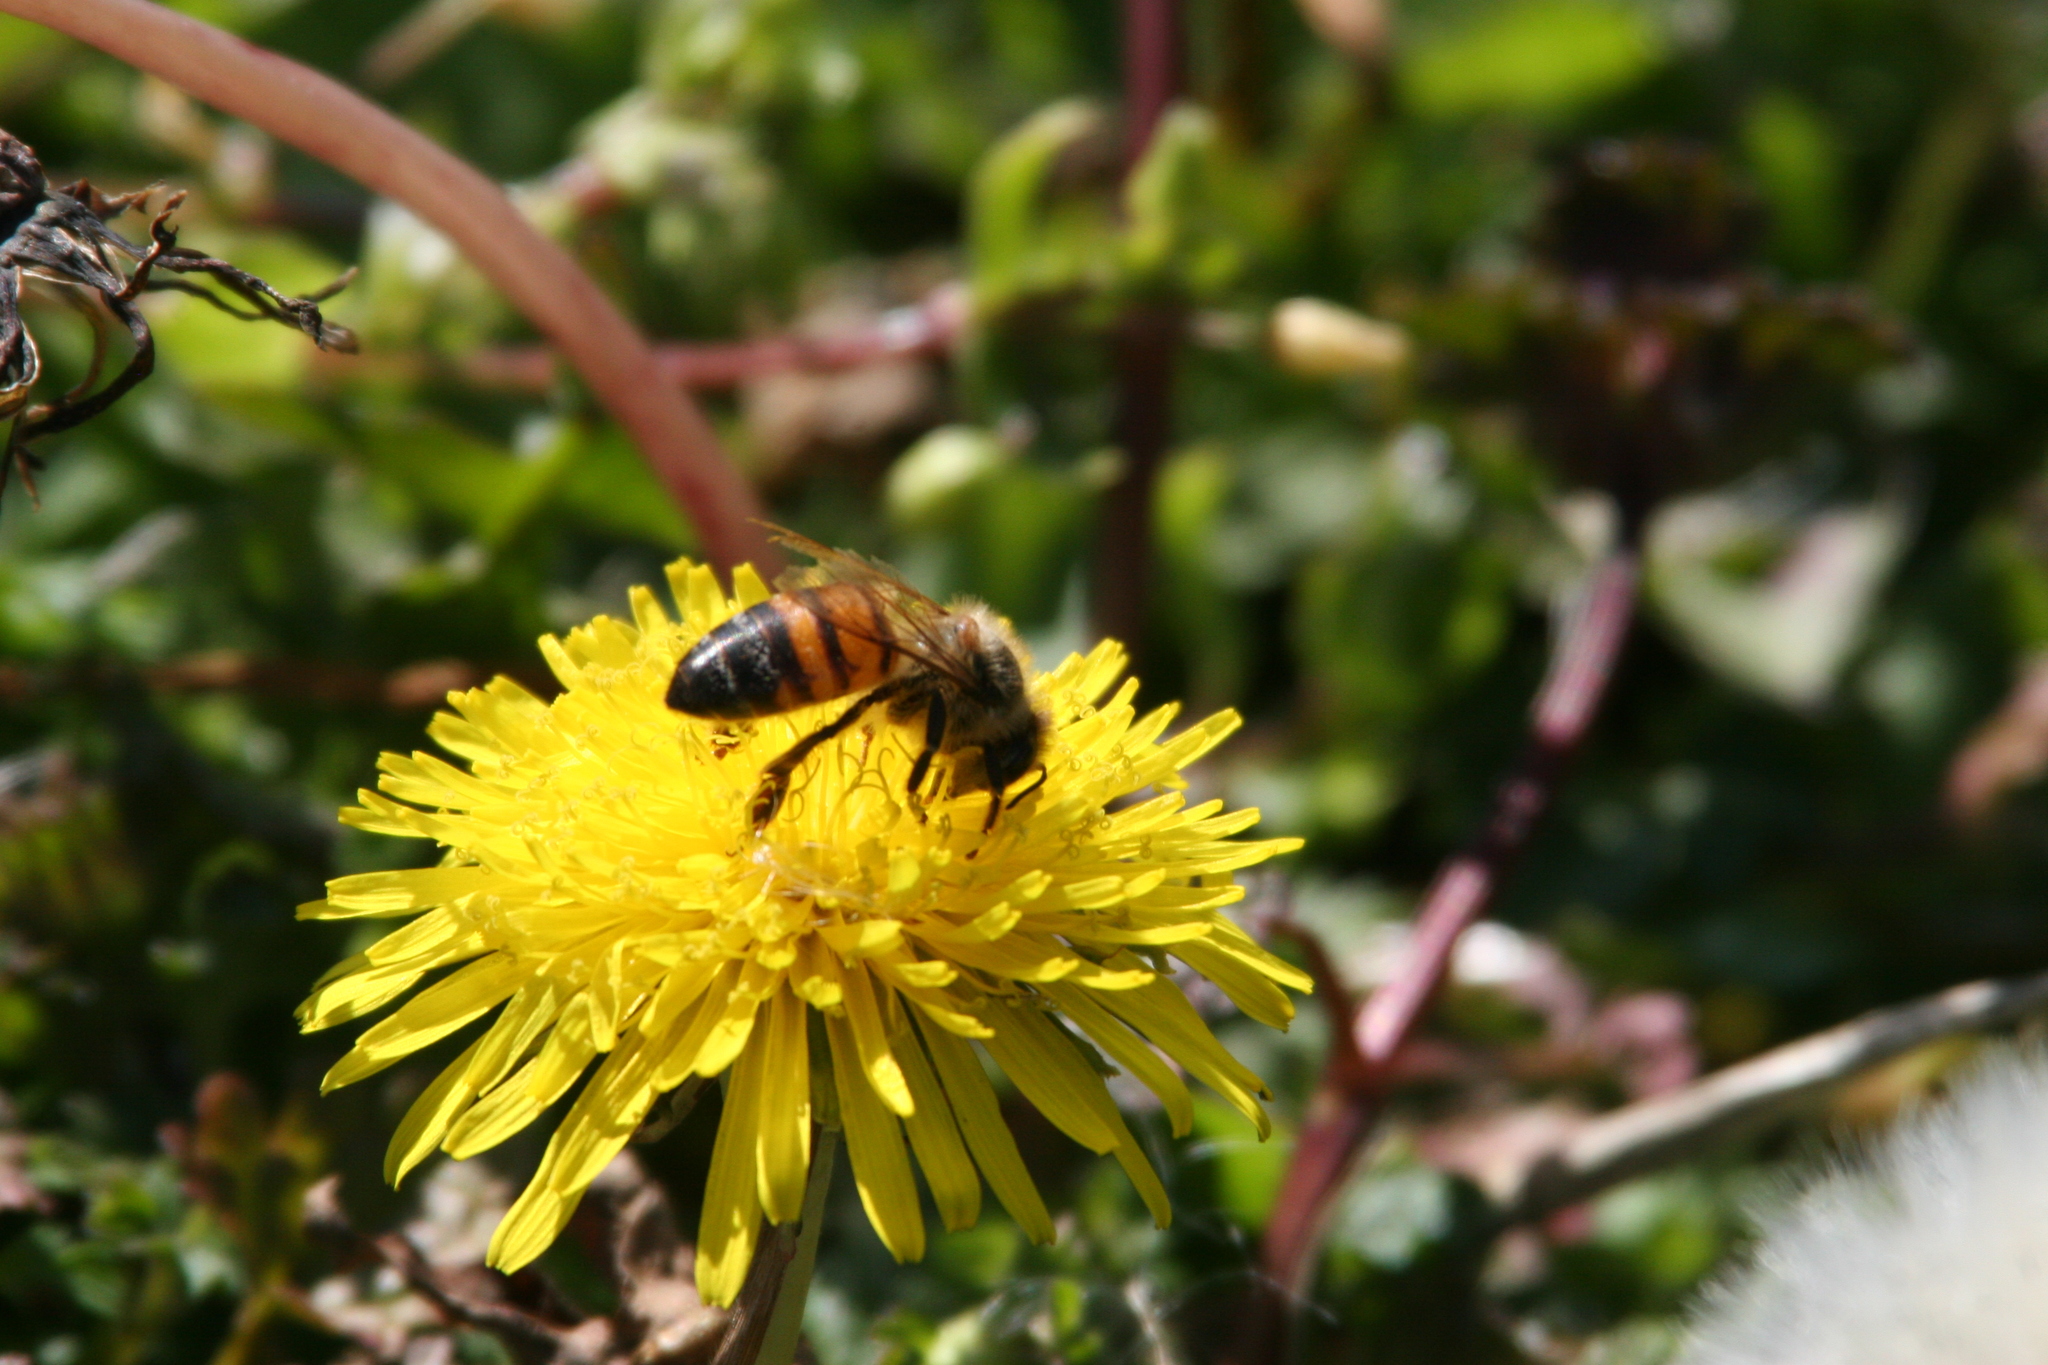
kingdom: Plantae
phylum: Tracheophyta
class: Magnoliopsida
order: Asterales
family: Asteraceae
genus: Taraxacum
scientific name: Taraxacum officinale
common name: Common dandelion
